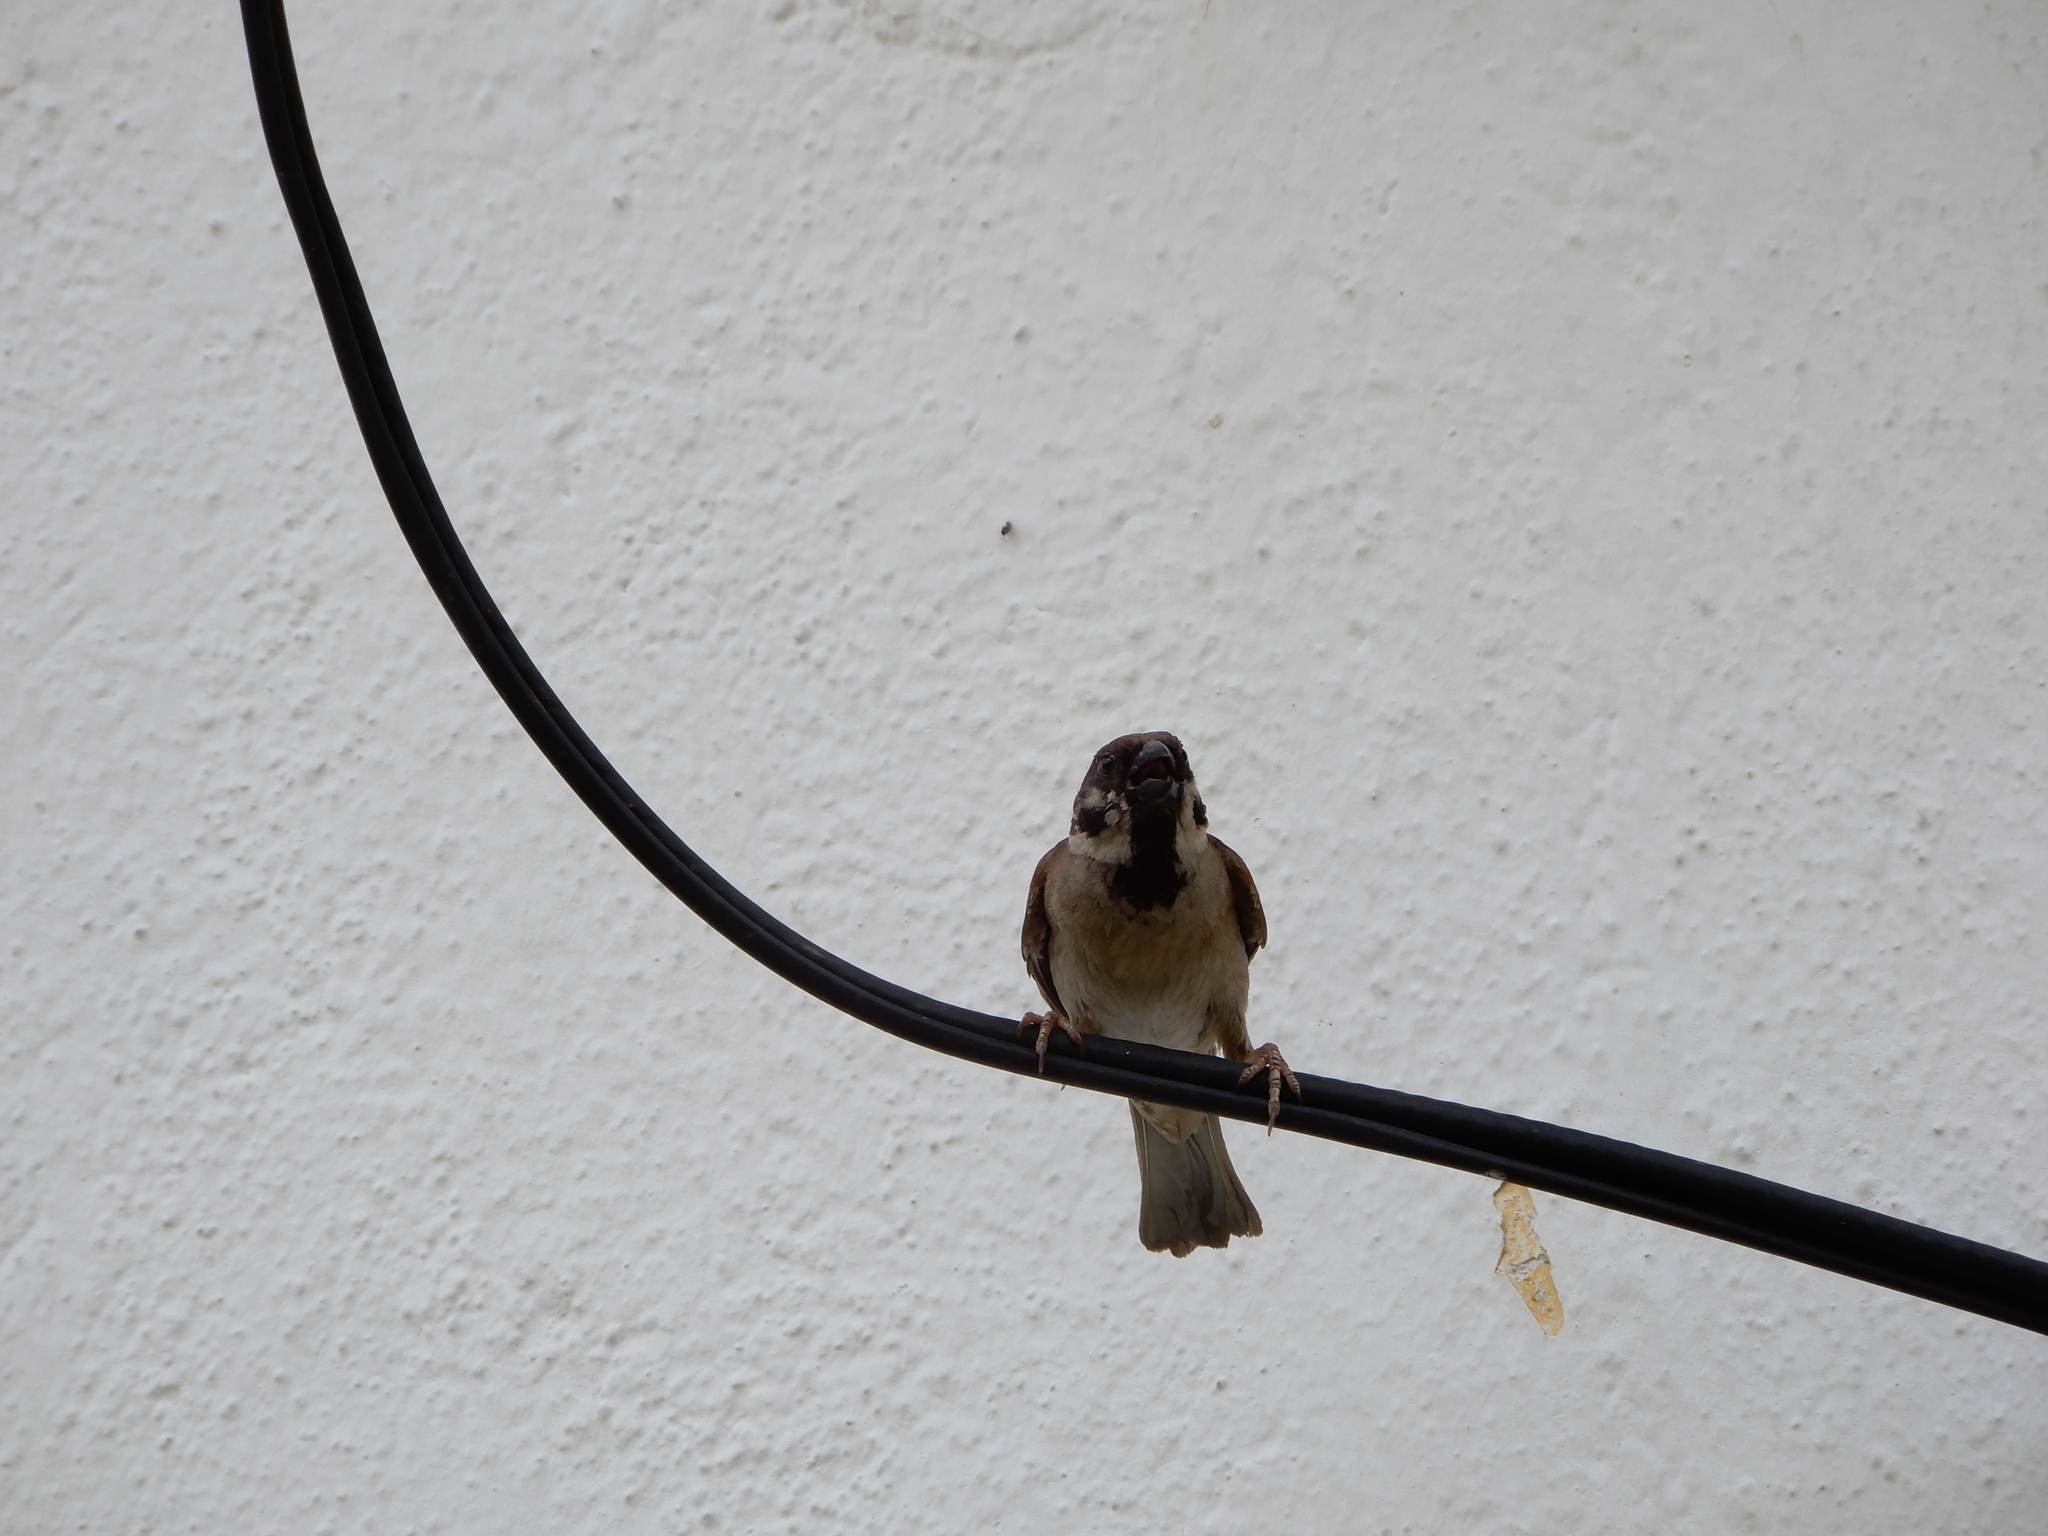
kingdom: Animalia
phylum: Chordata
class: Aves
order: Passeriformes
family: Passeridae
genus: Passer
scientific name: Passer montanus
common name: Eurasian tree sparrow
